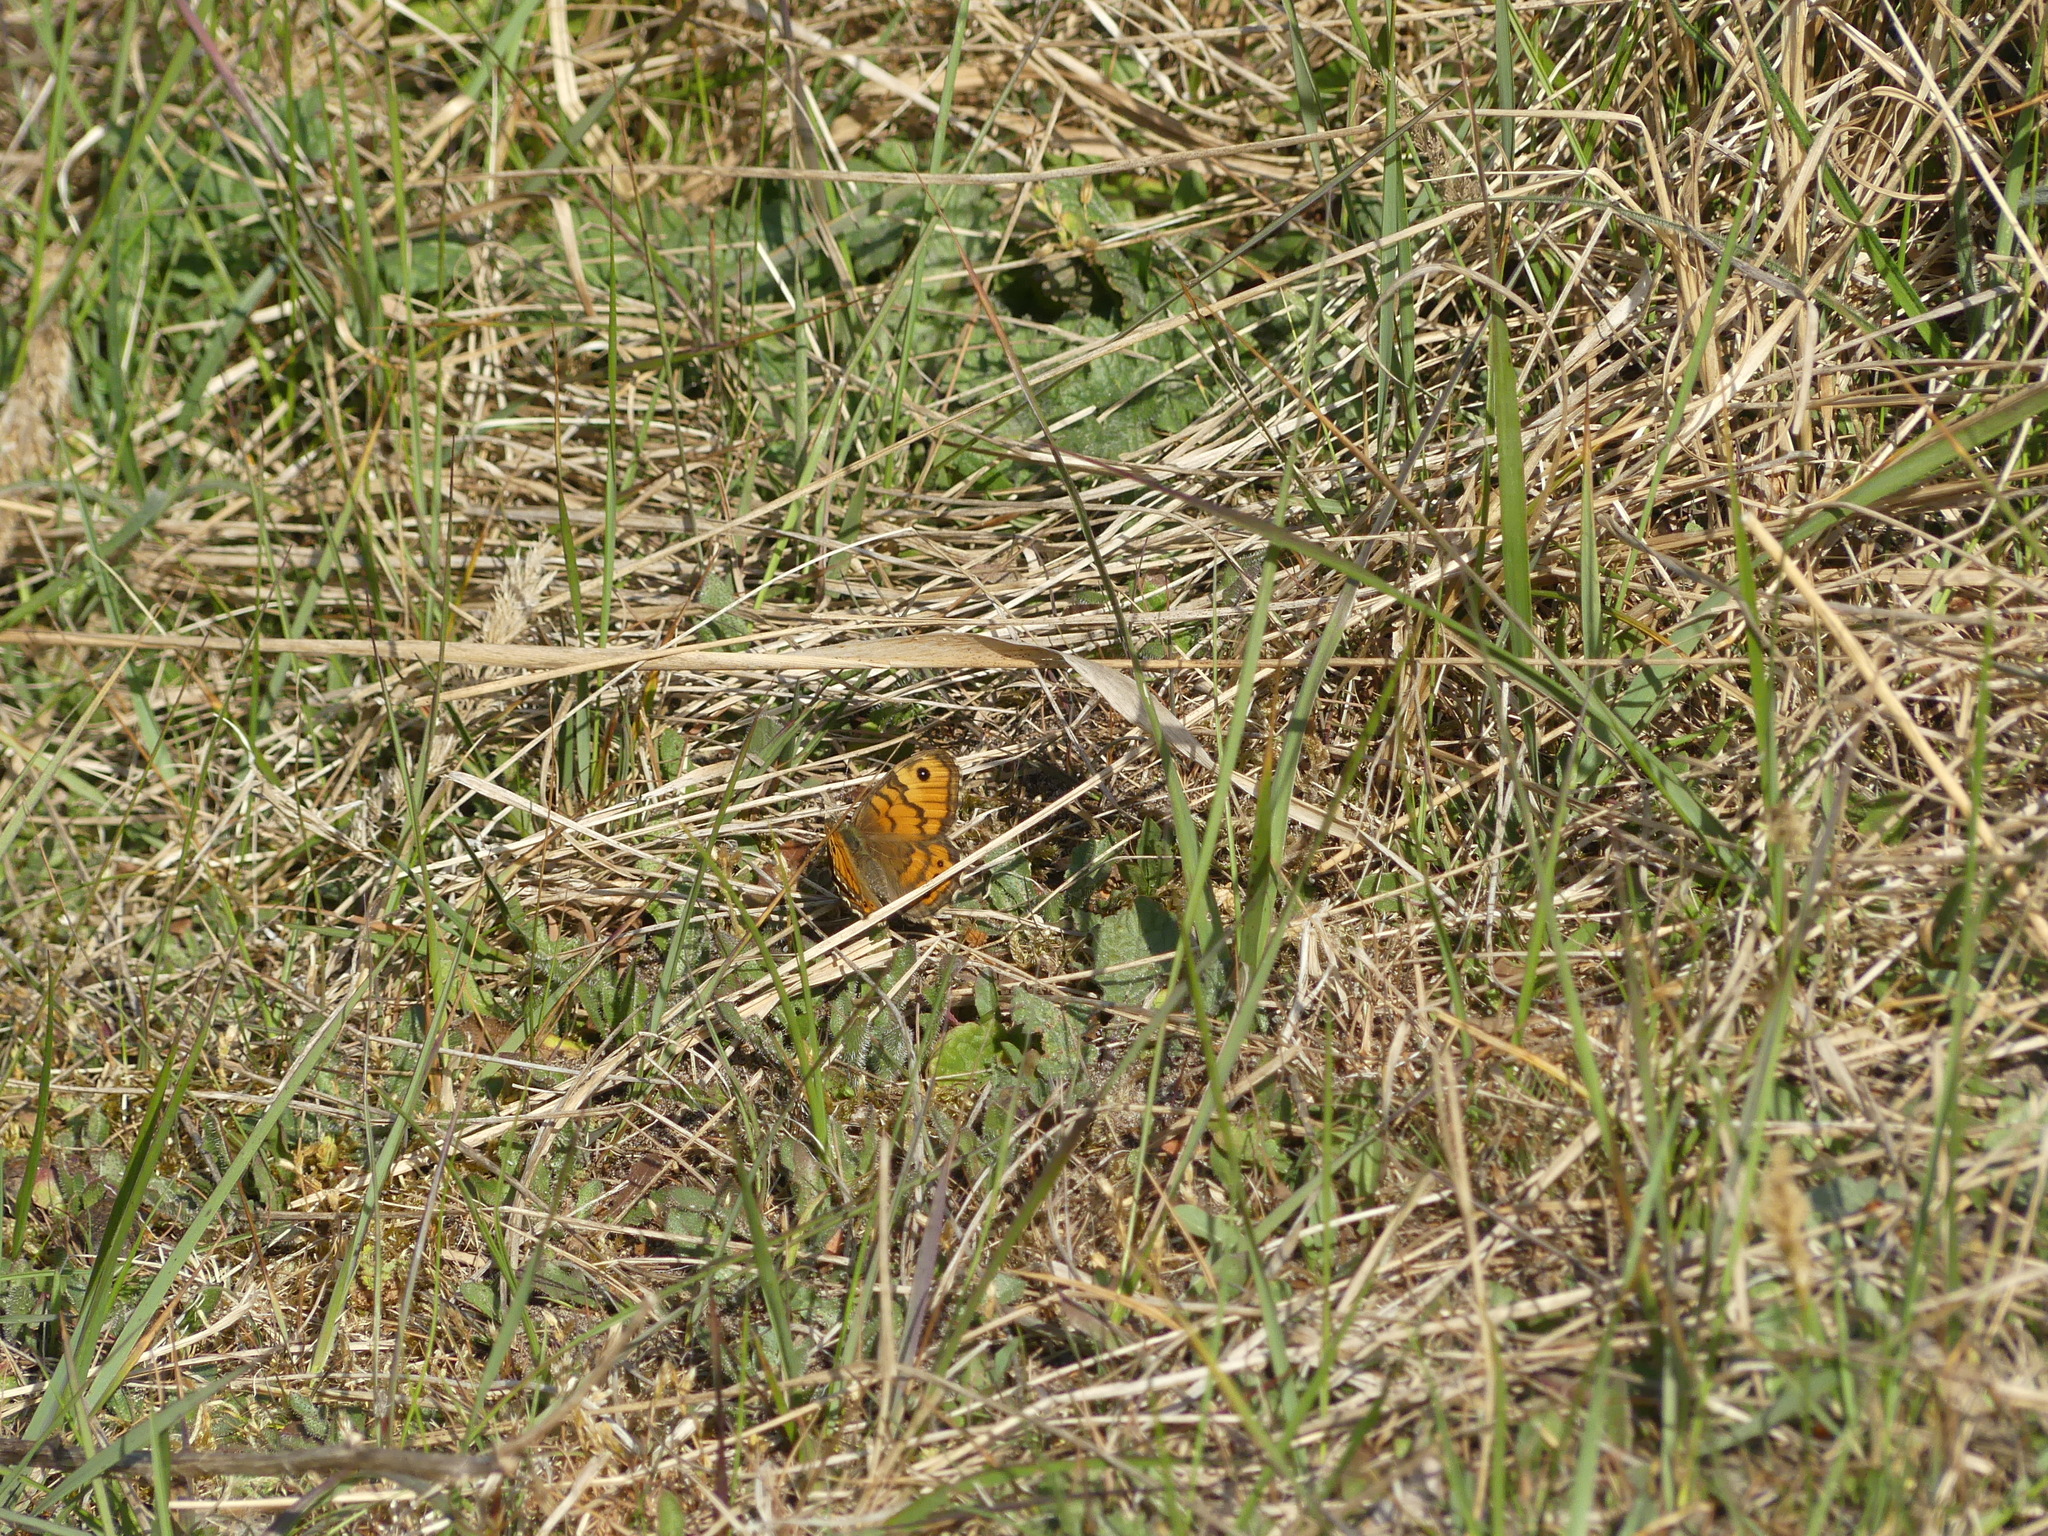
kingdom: Animalia
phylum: Arthropoda
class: Insecta
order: Lepidoptera
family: Nymphalidae
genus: Pararge
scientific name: Pararge Lasiommata megera
